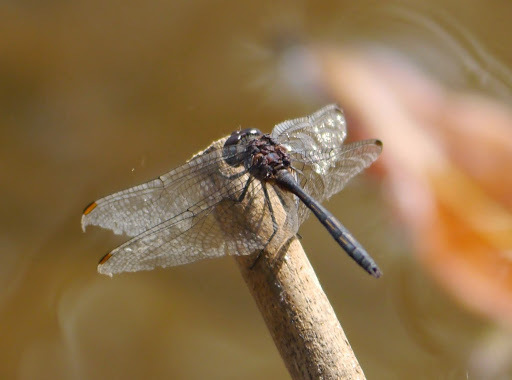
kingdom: Animalia
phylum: Arthropoda
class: Insecta
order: Odonata
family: Libellulidae
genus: Trithemis
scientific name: Trithemis aconita
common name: Halfshade dropwing
